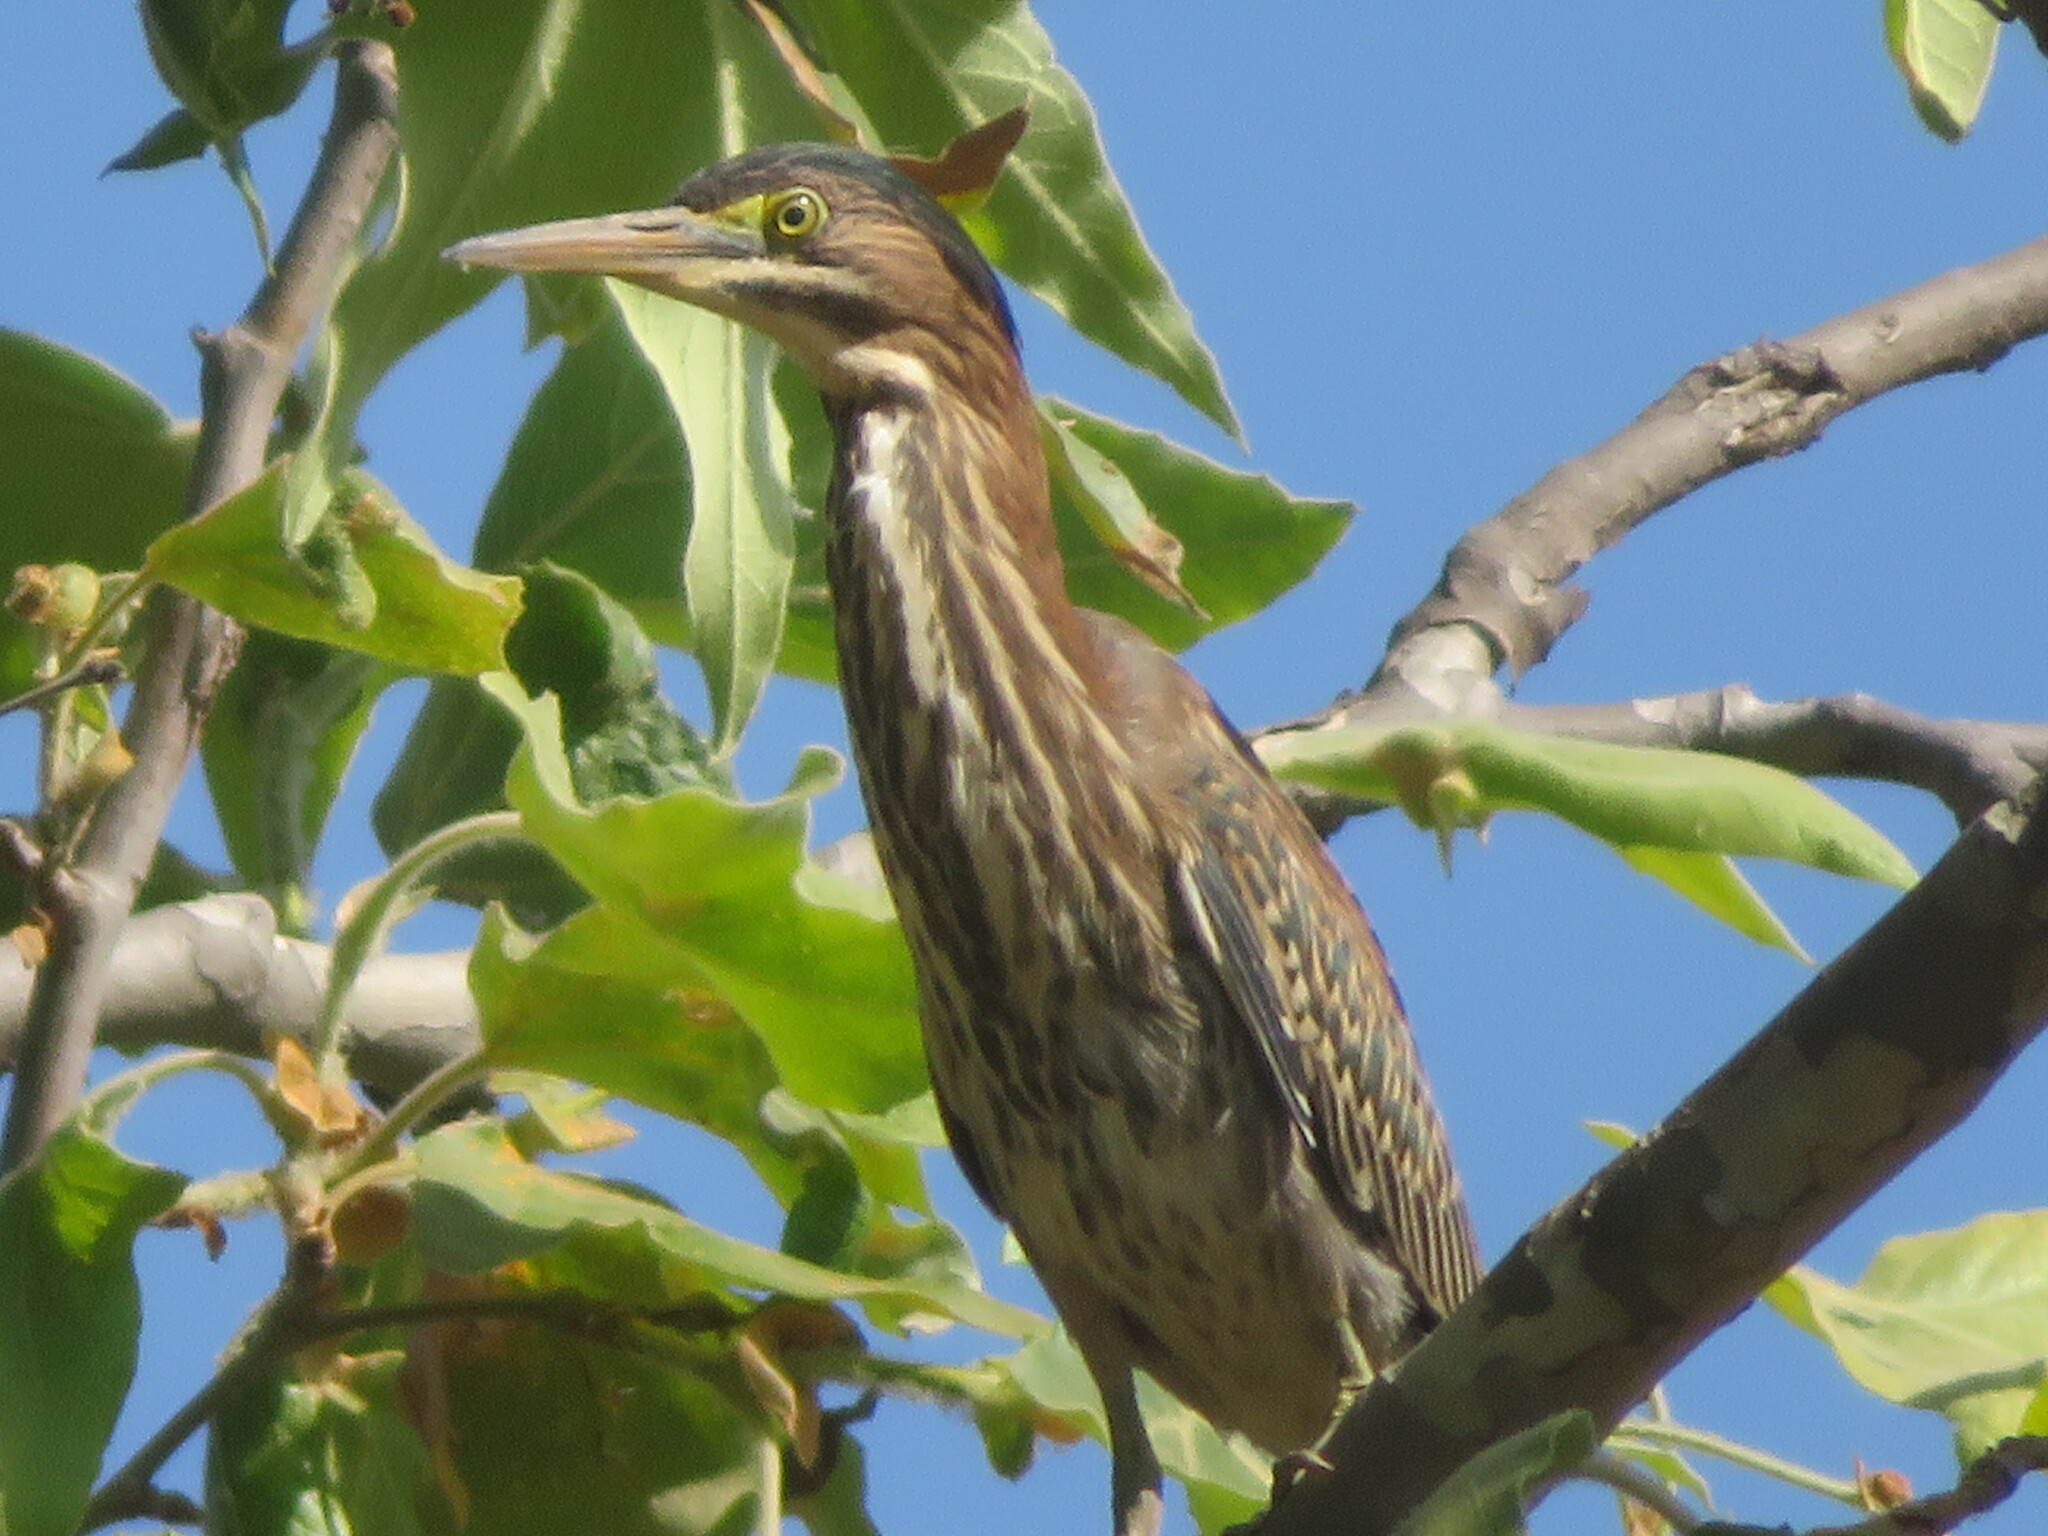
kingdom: Animalia
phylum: Chordata
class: Aves
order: Pelecaniformes
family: Ardeidae
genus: Butorides
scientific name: Butorides virescens
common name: Green heron
